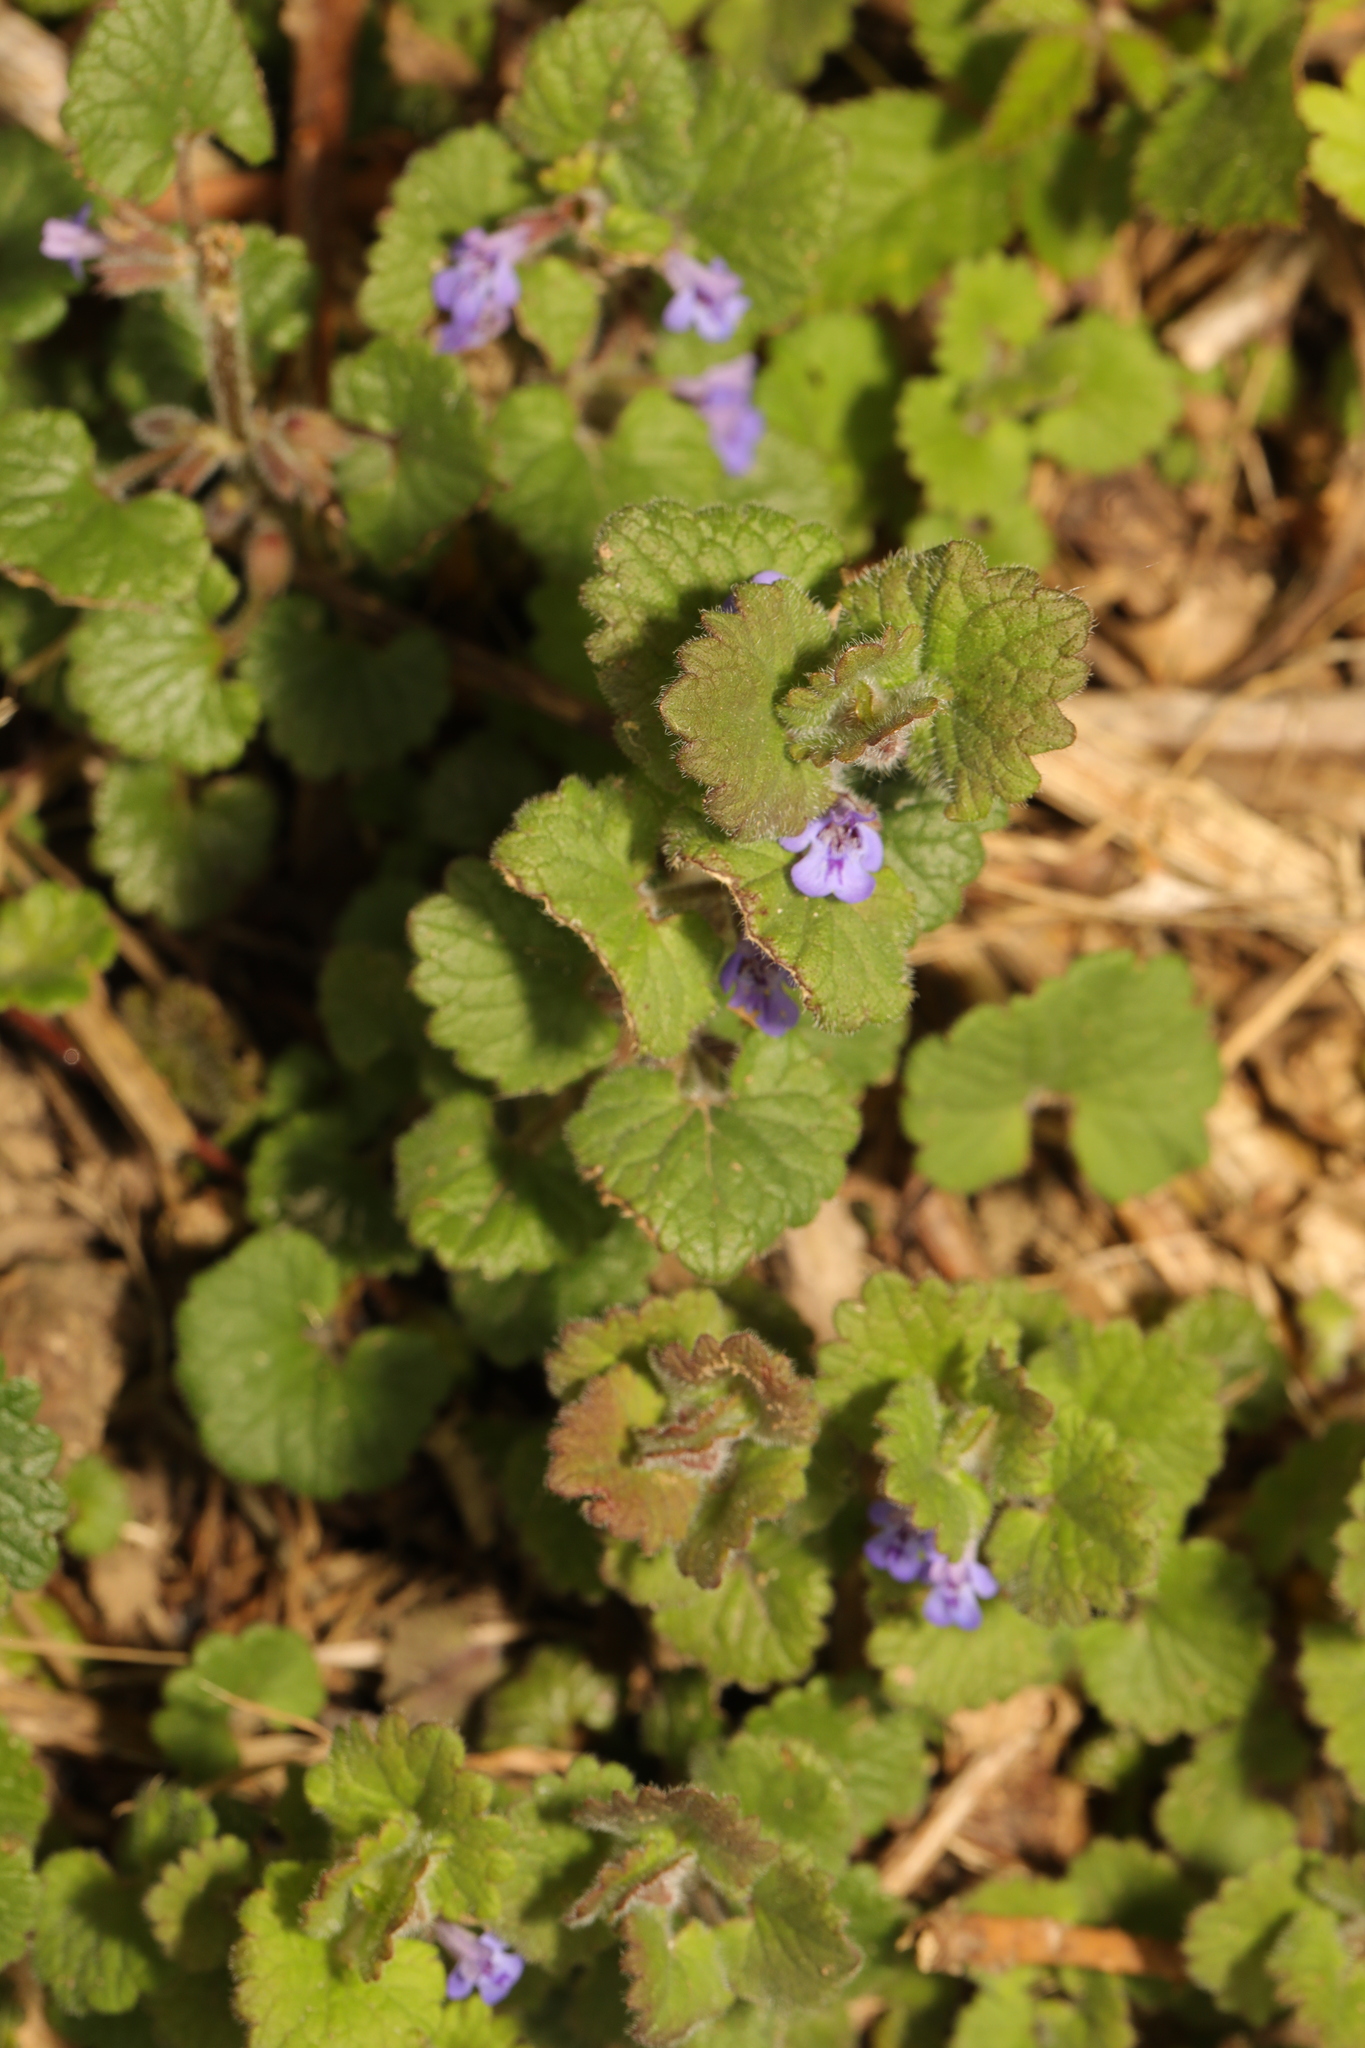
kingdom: Plantae
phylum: Tracheophyta
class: Magnoliopsida
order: Lamiales
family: Lamiaceae
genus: Glechoma
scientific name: Glechoma hederacea
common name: Ground ivy
